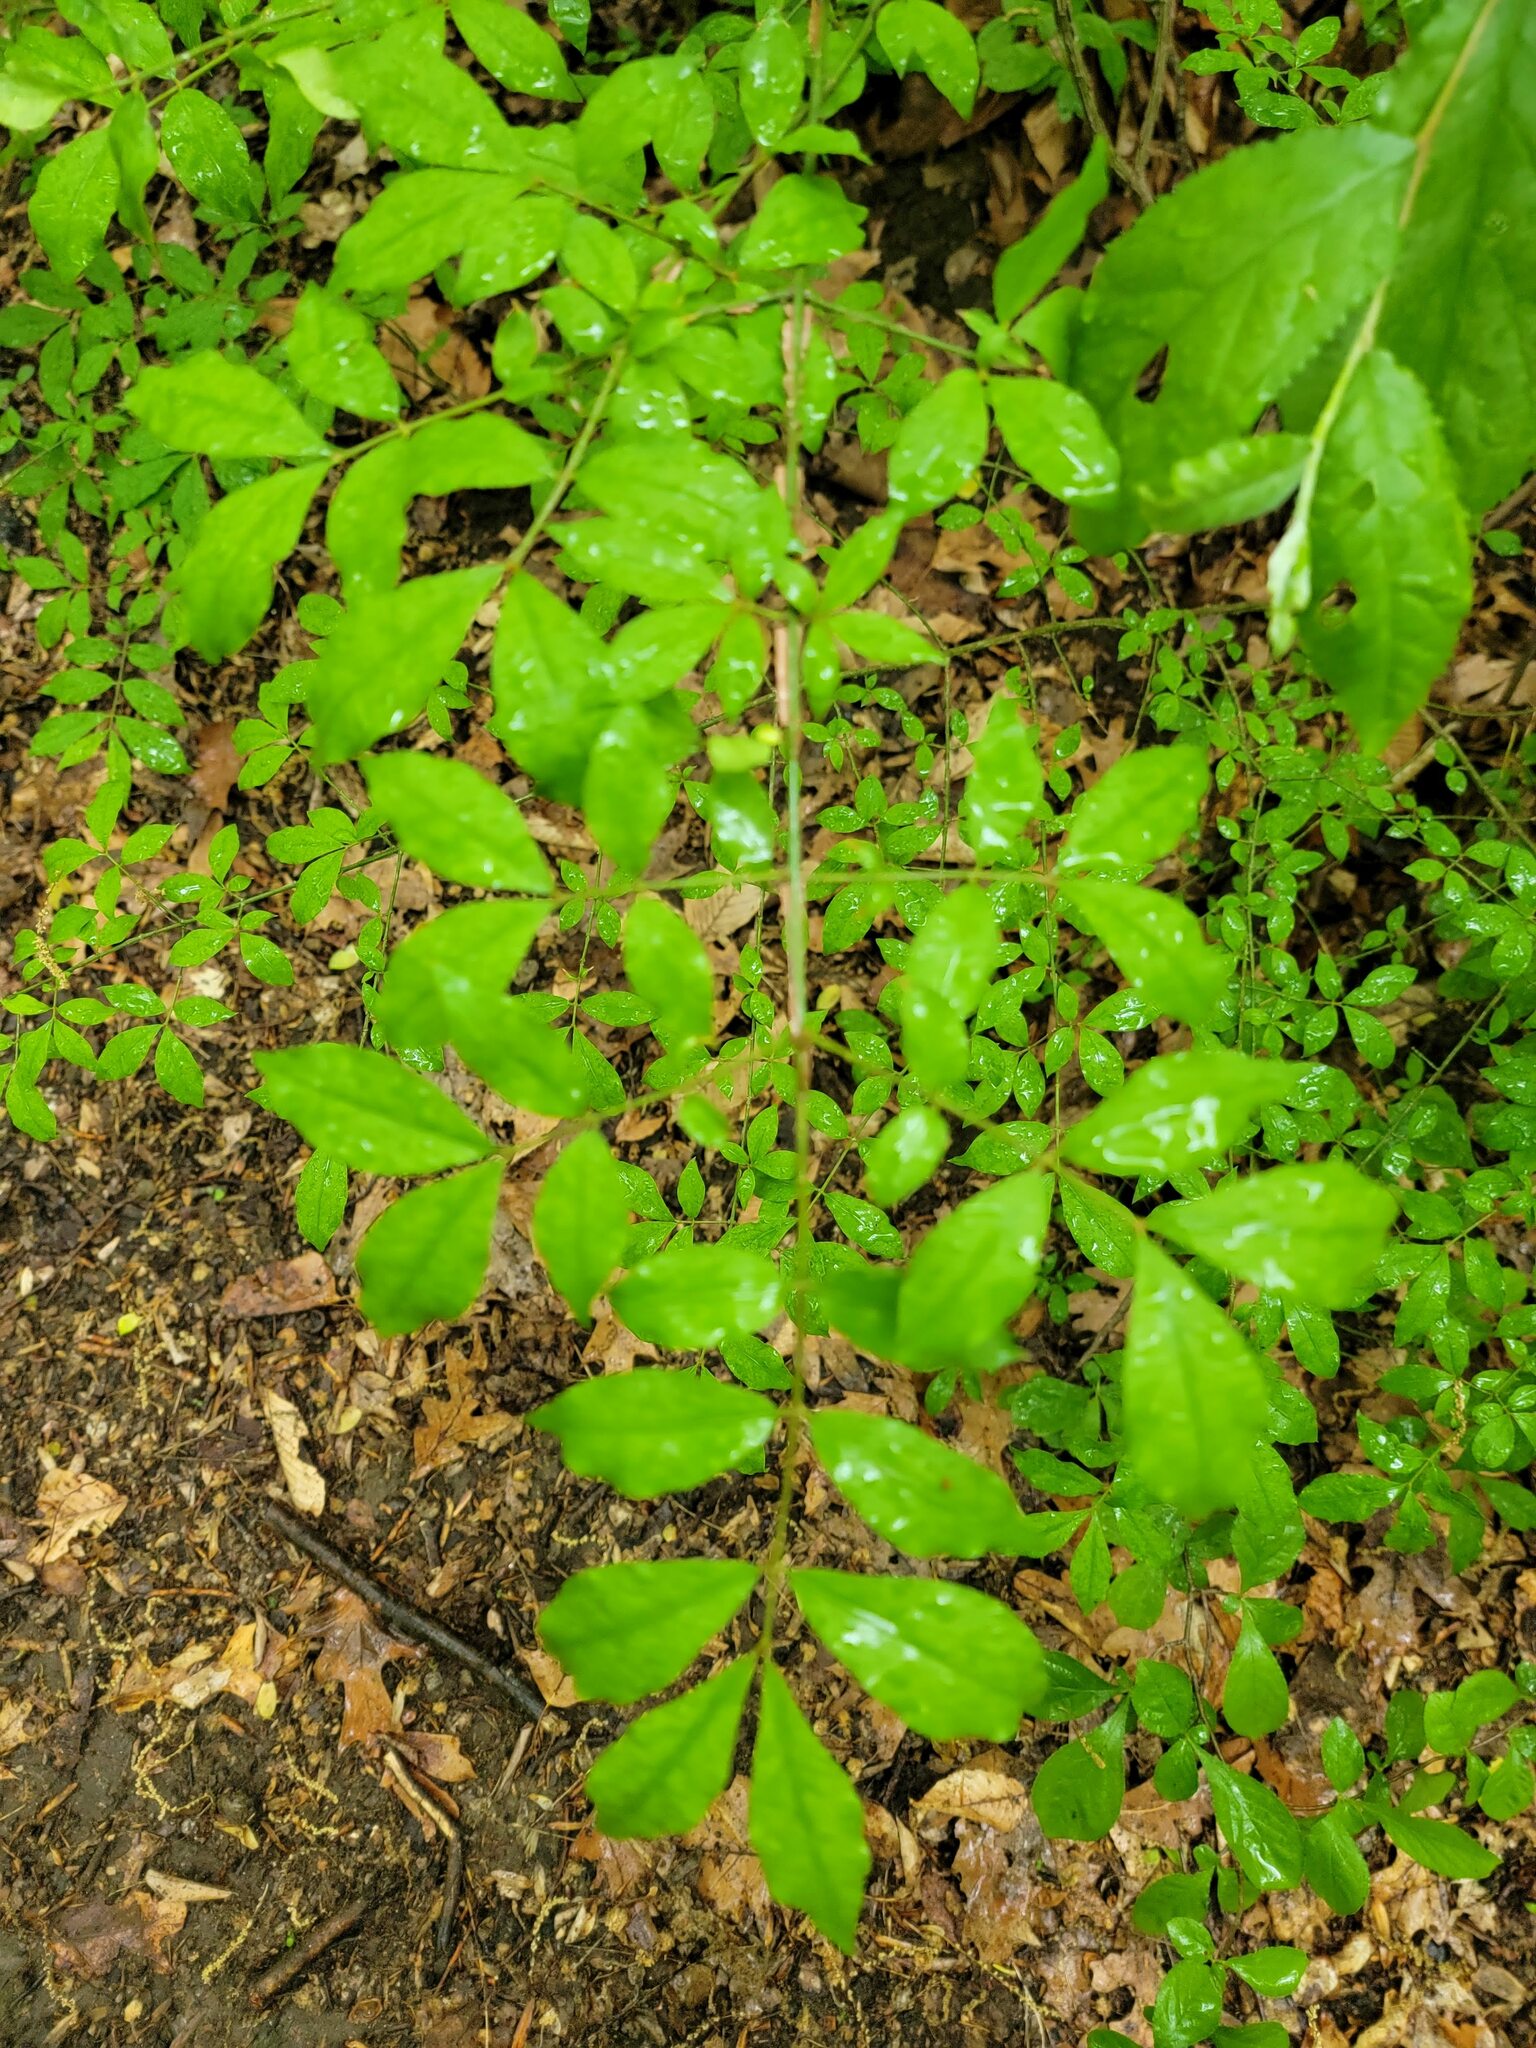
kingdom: Plantae
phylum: Tracheophyta
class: Magnoliopsida
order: Celastrales
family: Celastraceae
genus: Euonymus
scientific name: Euonymus alatus
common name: Winged euonymus
